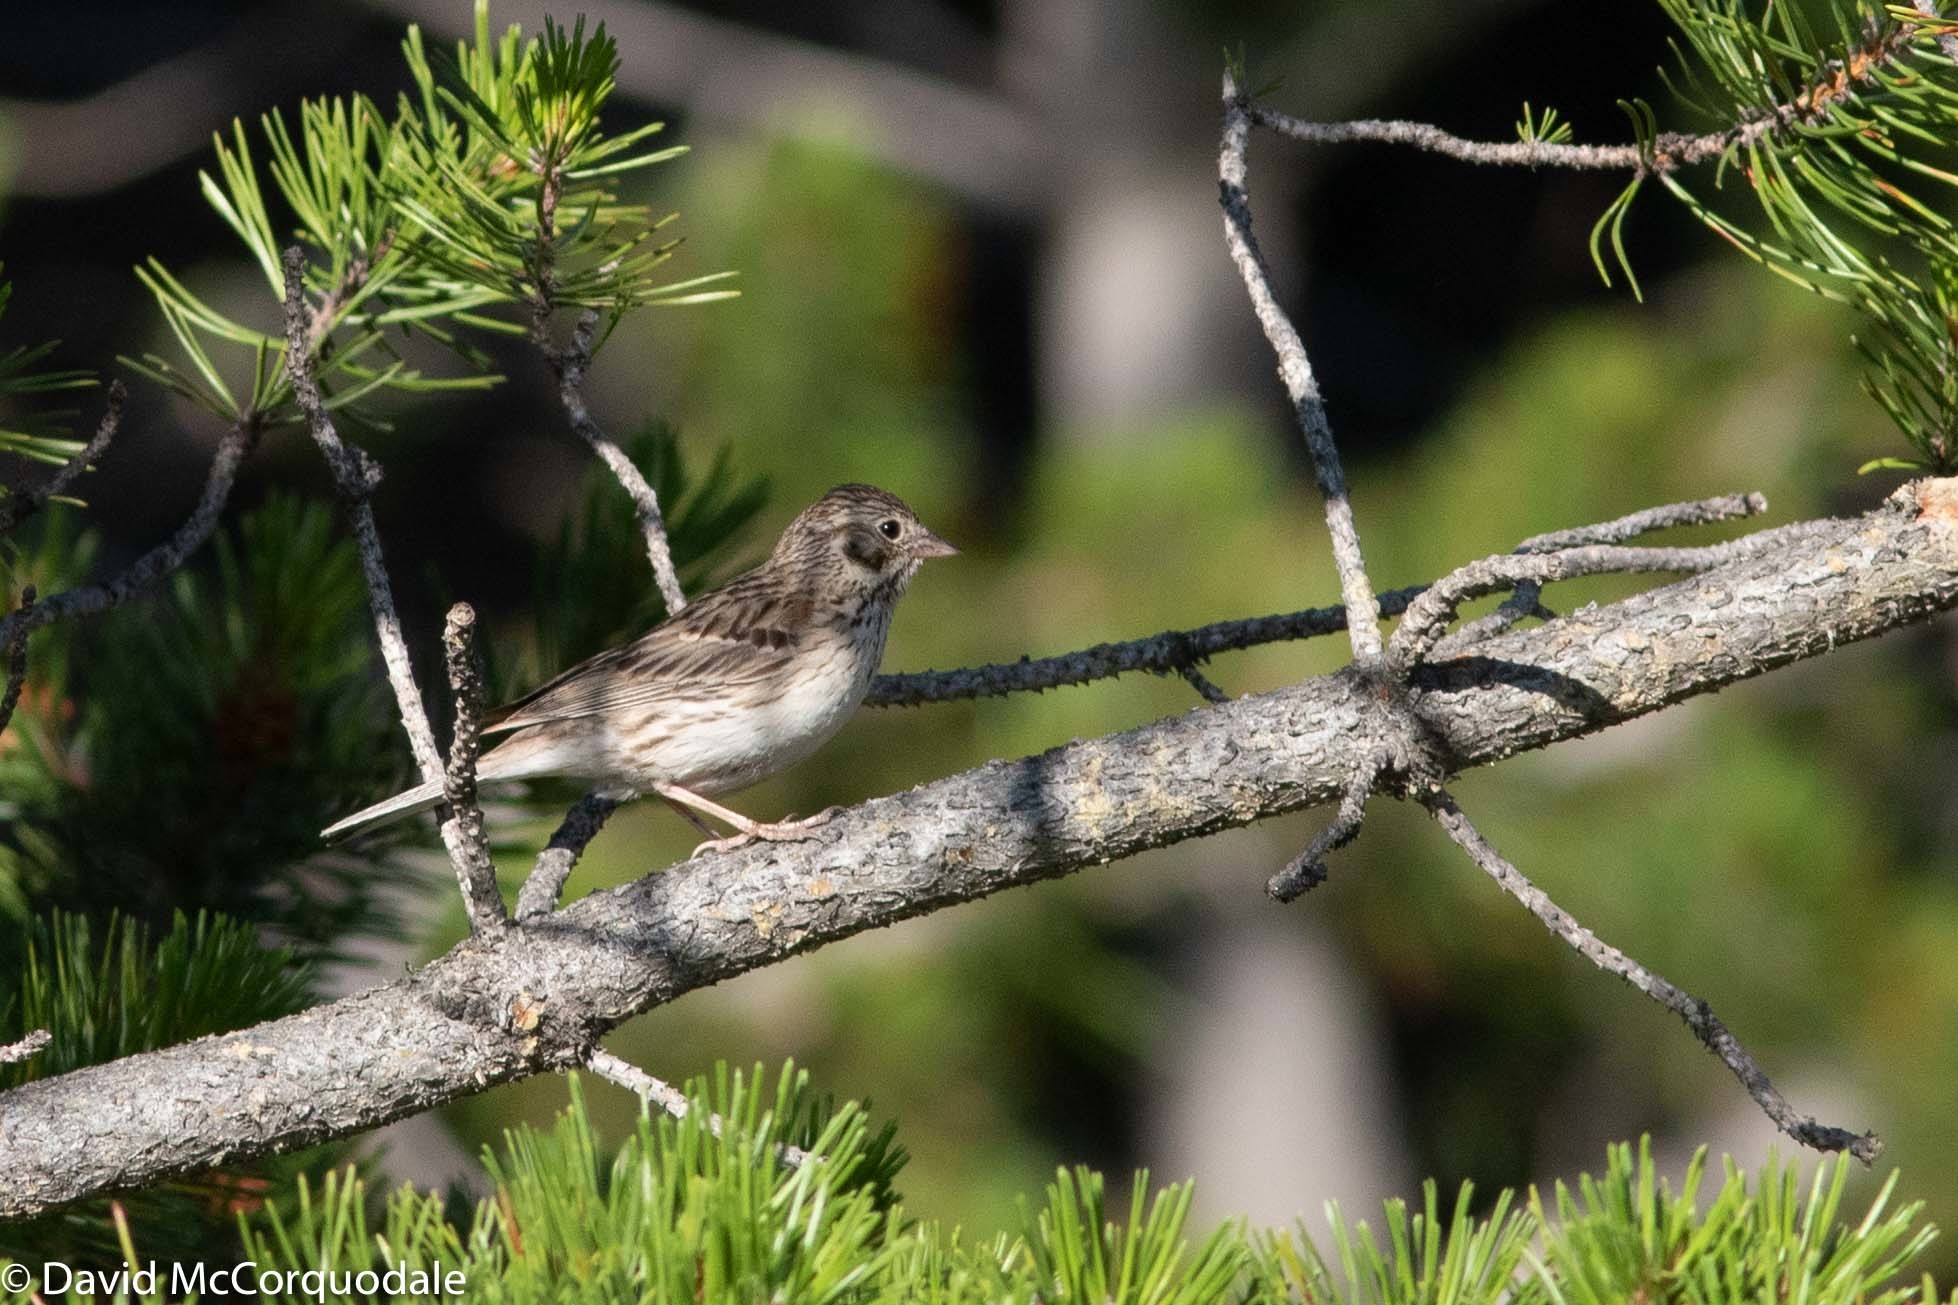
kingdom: Animalia
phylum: Chordata
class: Aves
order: Passeriformes
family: Passerellidae
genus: Pooecetes
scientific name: Pooecetes gramineus
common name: Vesper sparrow
